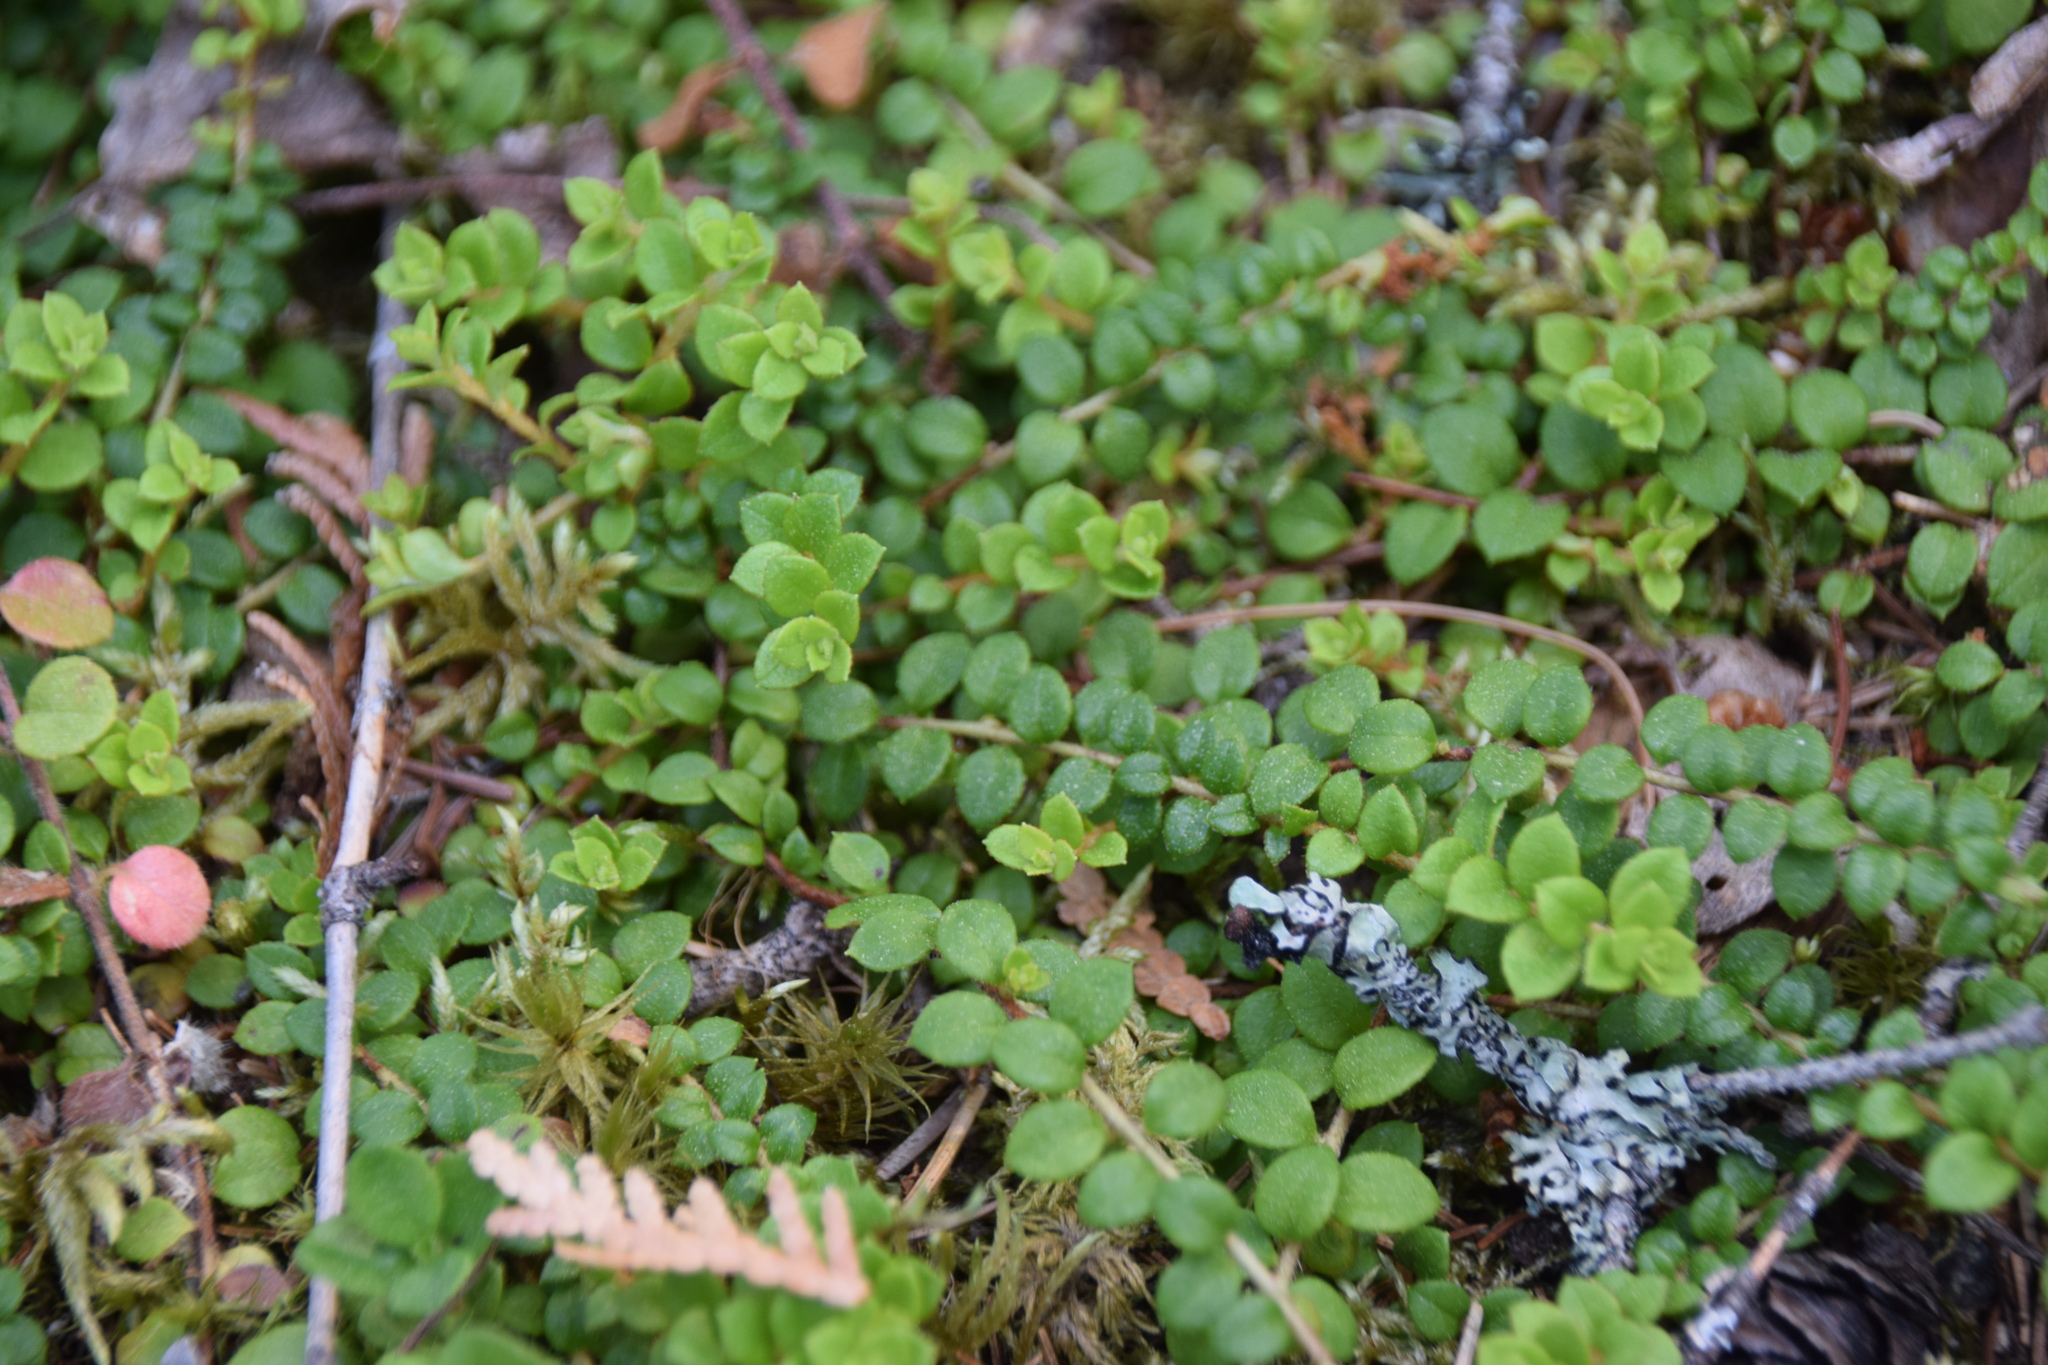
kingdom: Plantae
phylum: Tracheophyta
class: Magnoliopsida
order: Ericales
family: Ericaceae
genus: Gaultheria
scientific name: Gaultheria hispidula
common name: Cancer wintergreen
